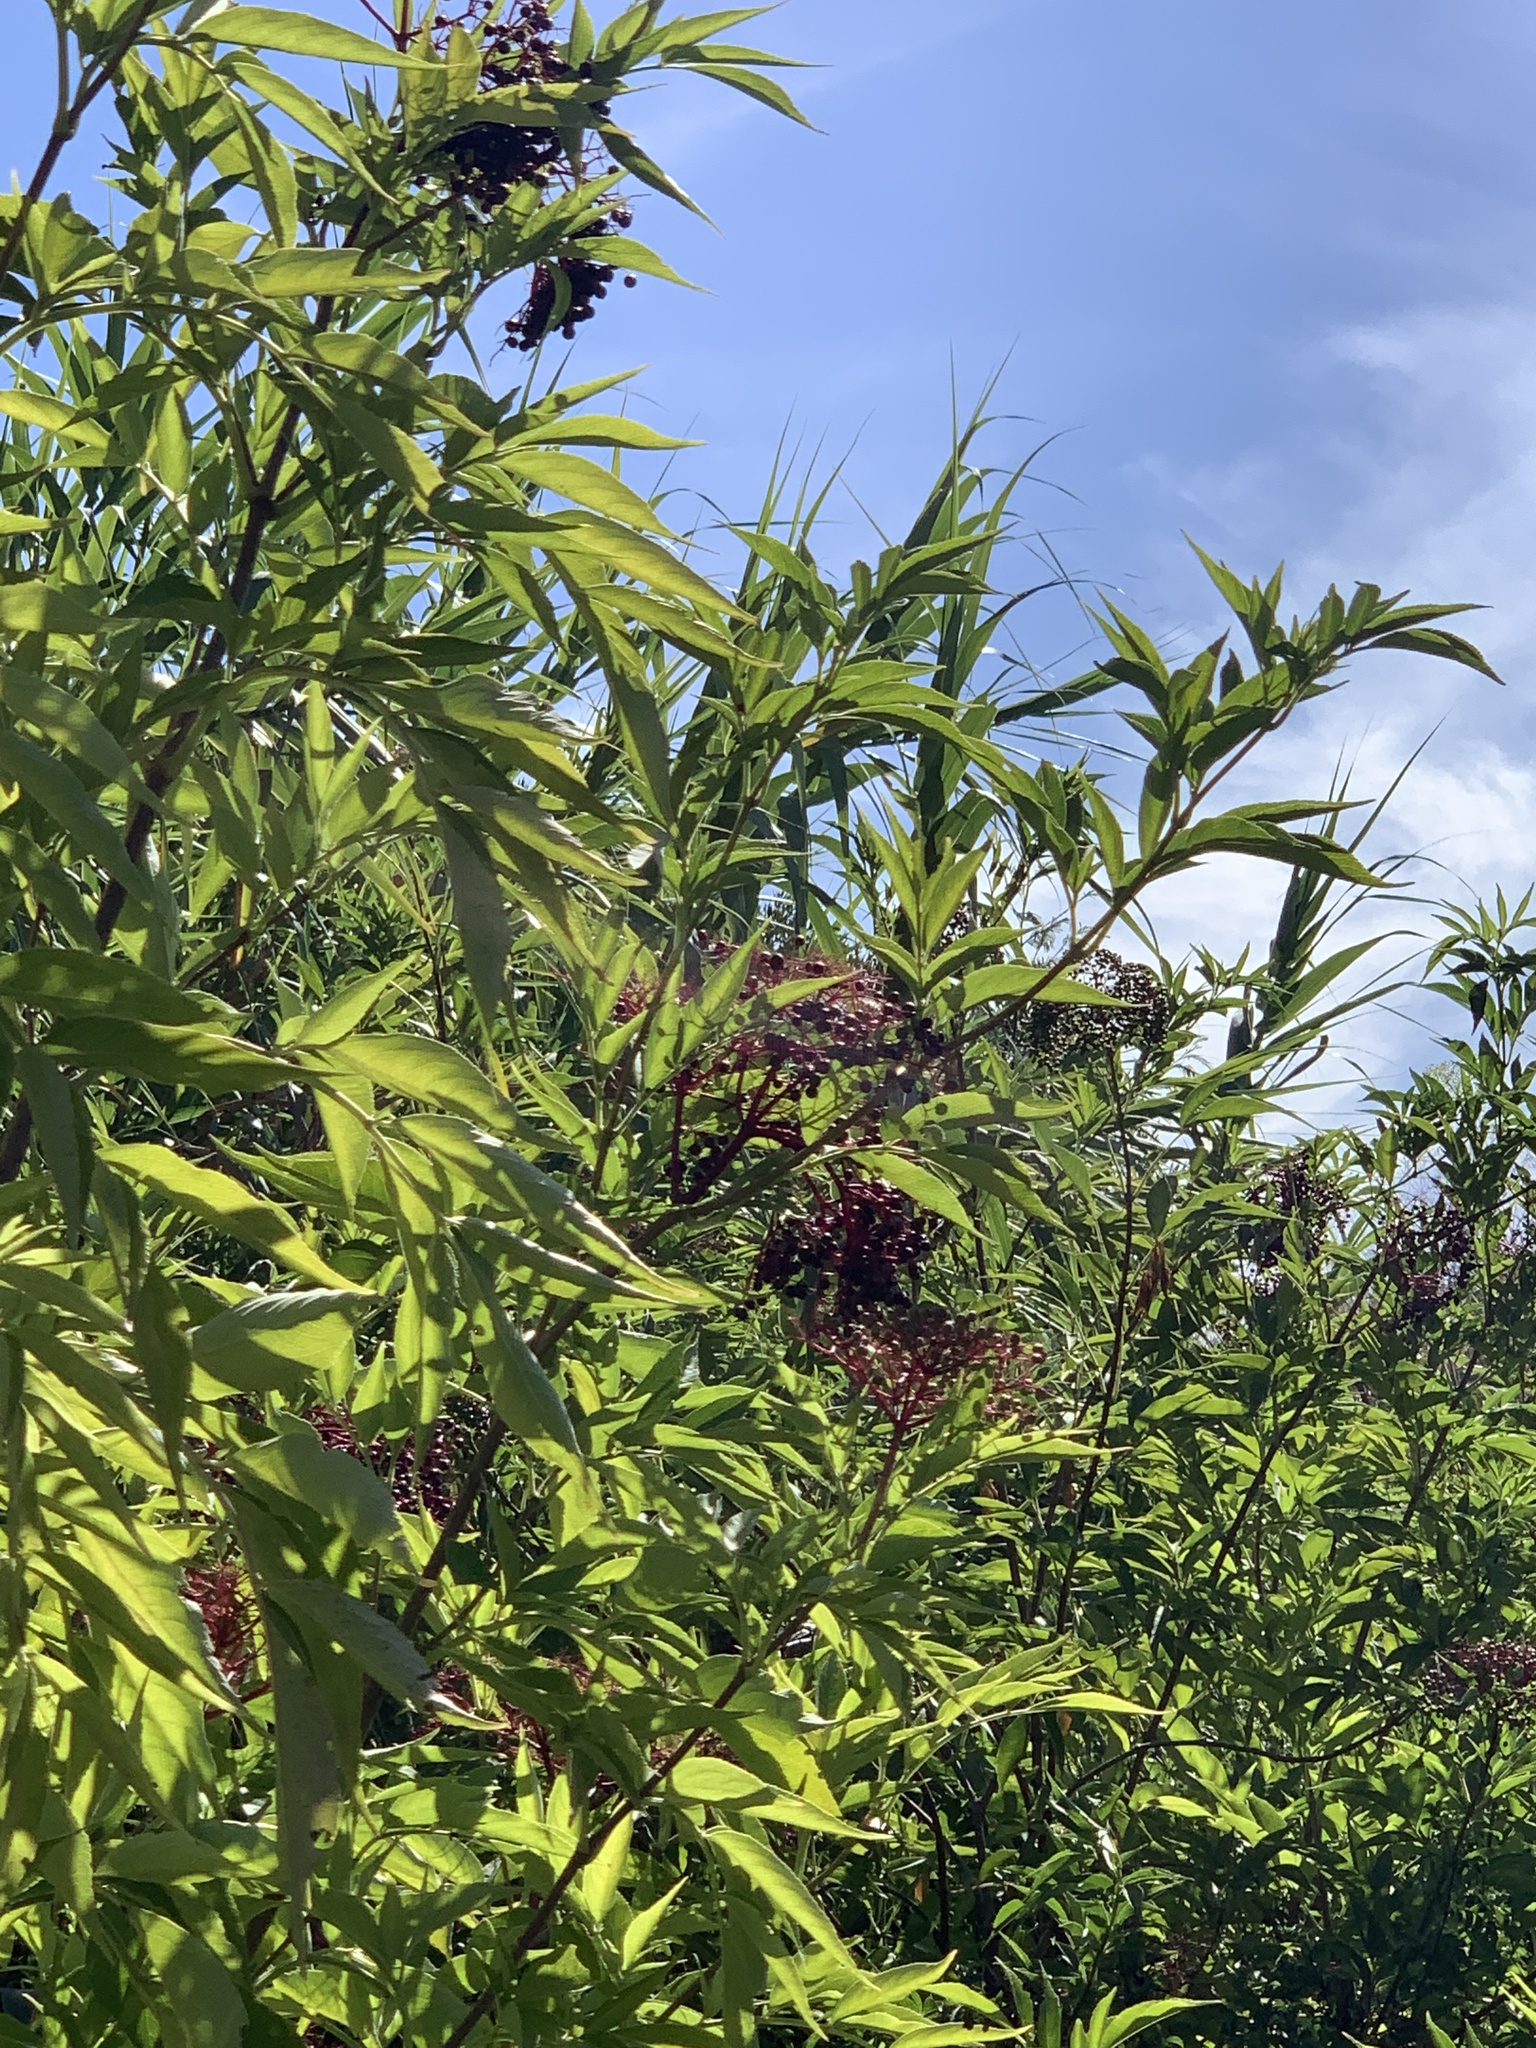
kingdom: Plantae
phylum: Tracheophyta
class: Magnoliopsida
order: Dipsacales
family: Viburnaceae
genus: Sambucus
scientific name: Sambucus nigra
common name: Elder
